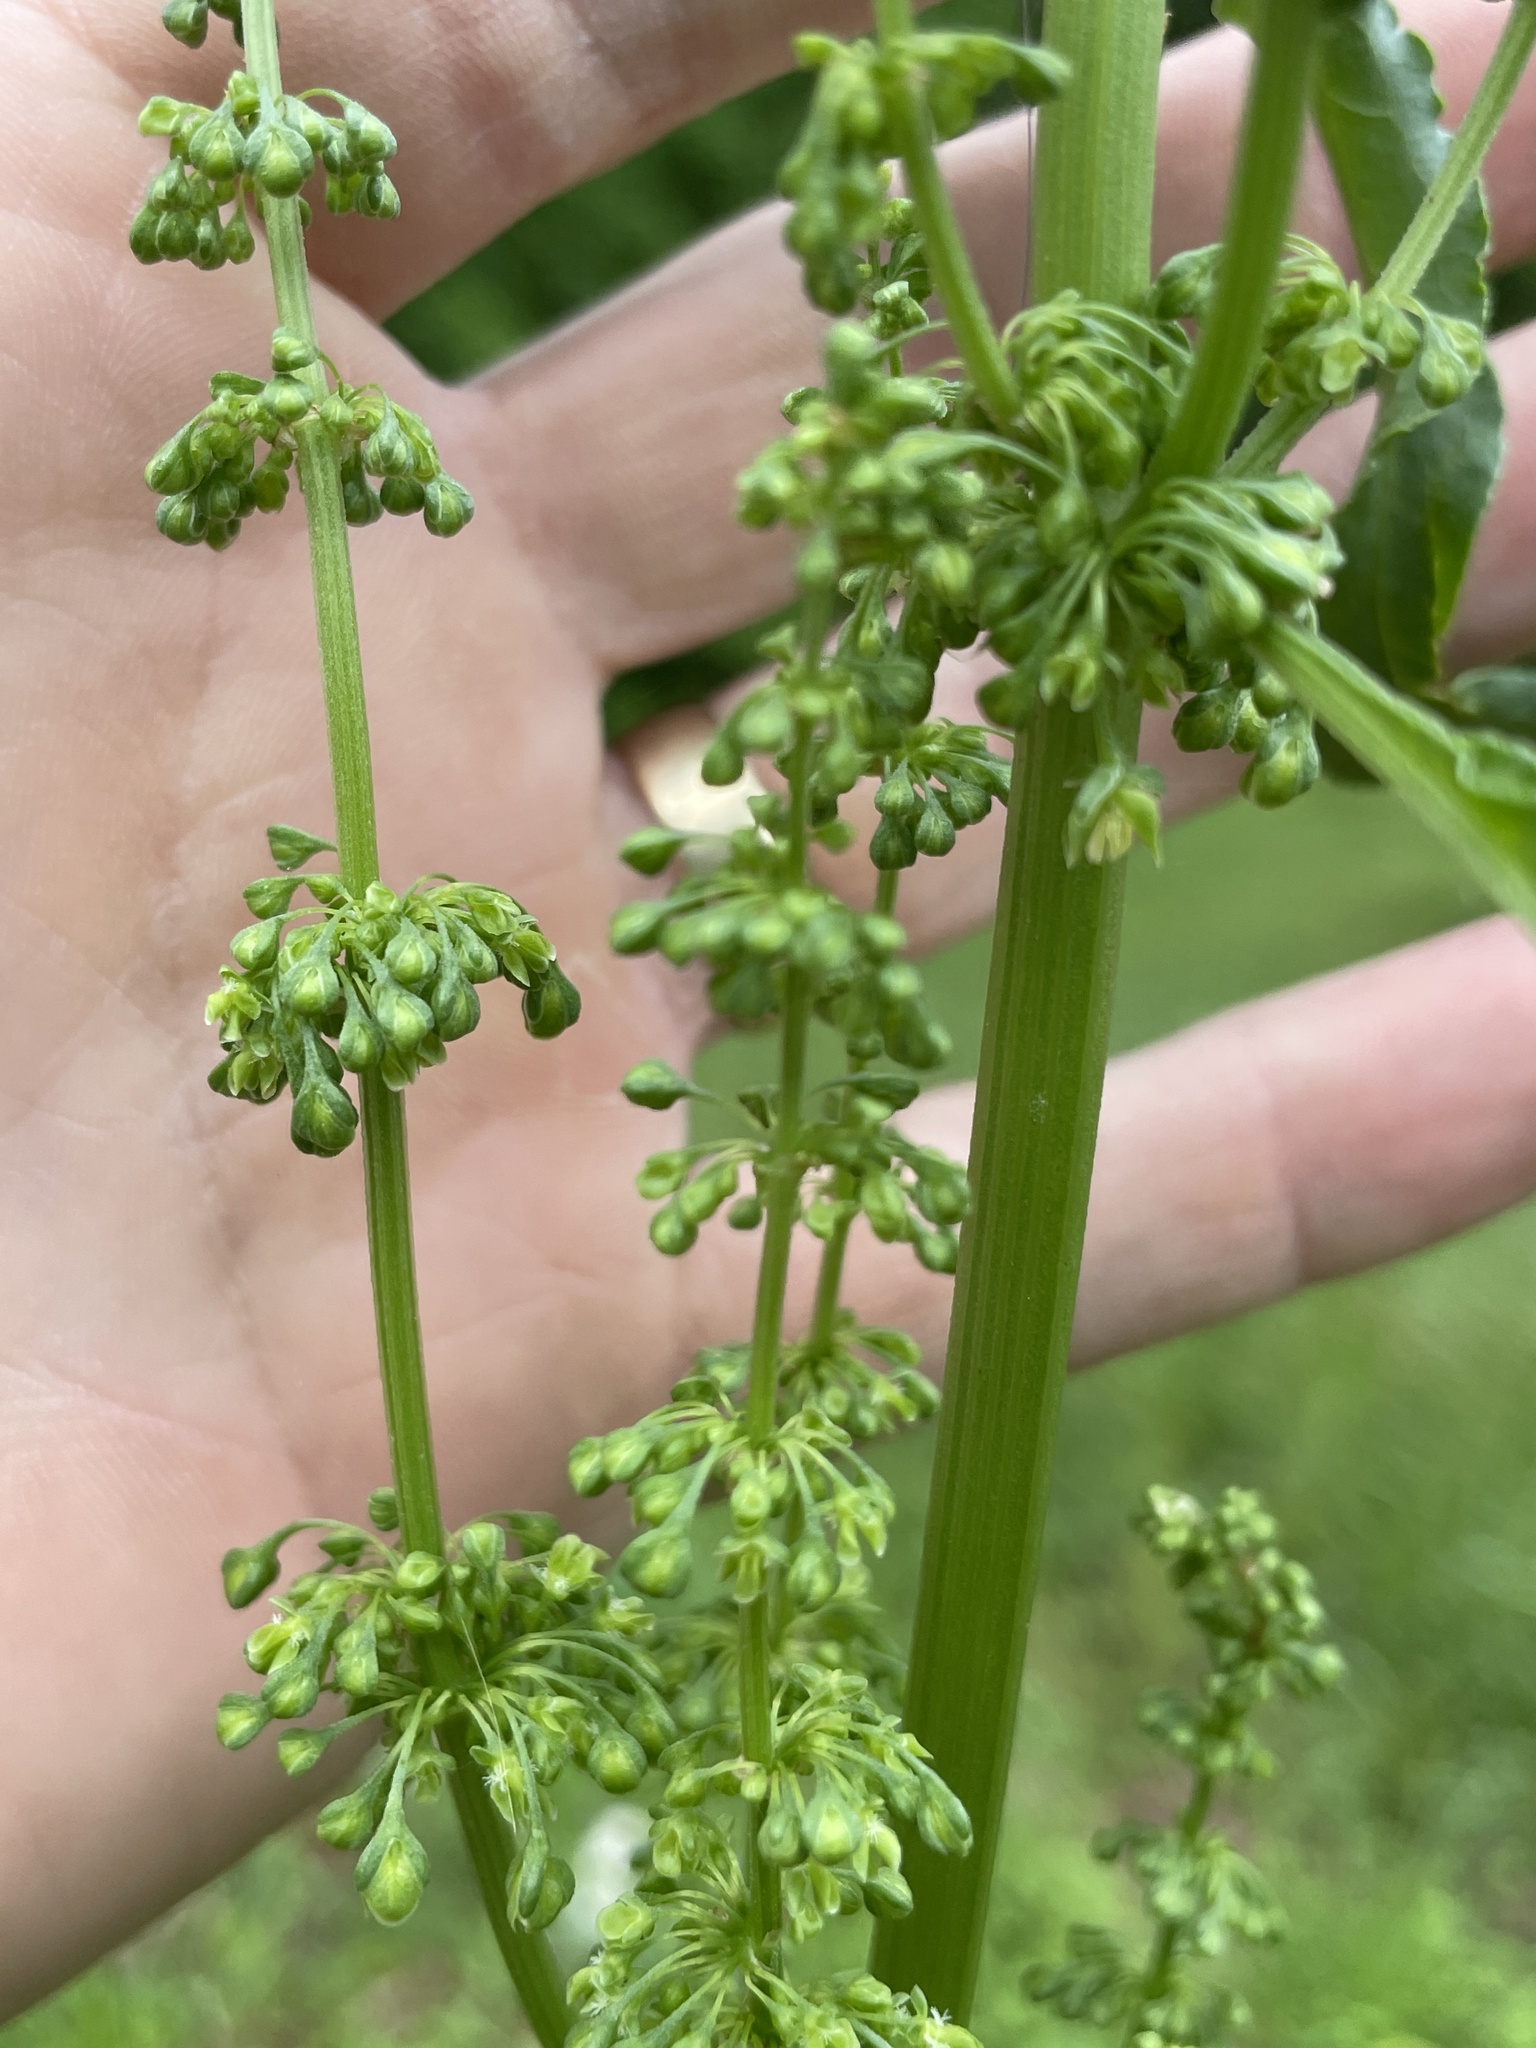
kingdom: Plantae
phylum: Tracheophyta
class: Magnoliopsida
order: Caryophyllales
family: Polygonaceae
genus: Rumex
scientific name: Rumex crispus
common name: Curled dock
